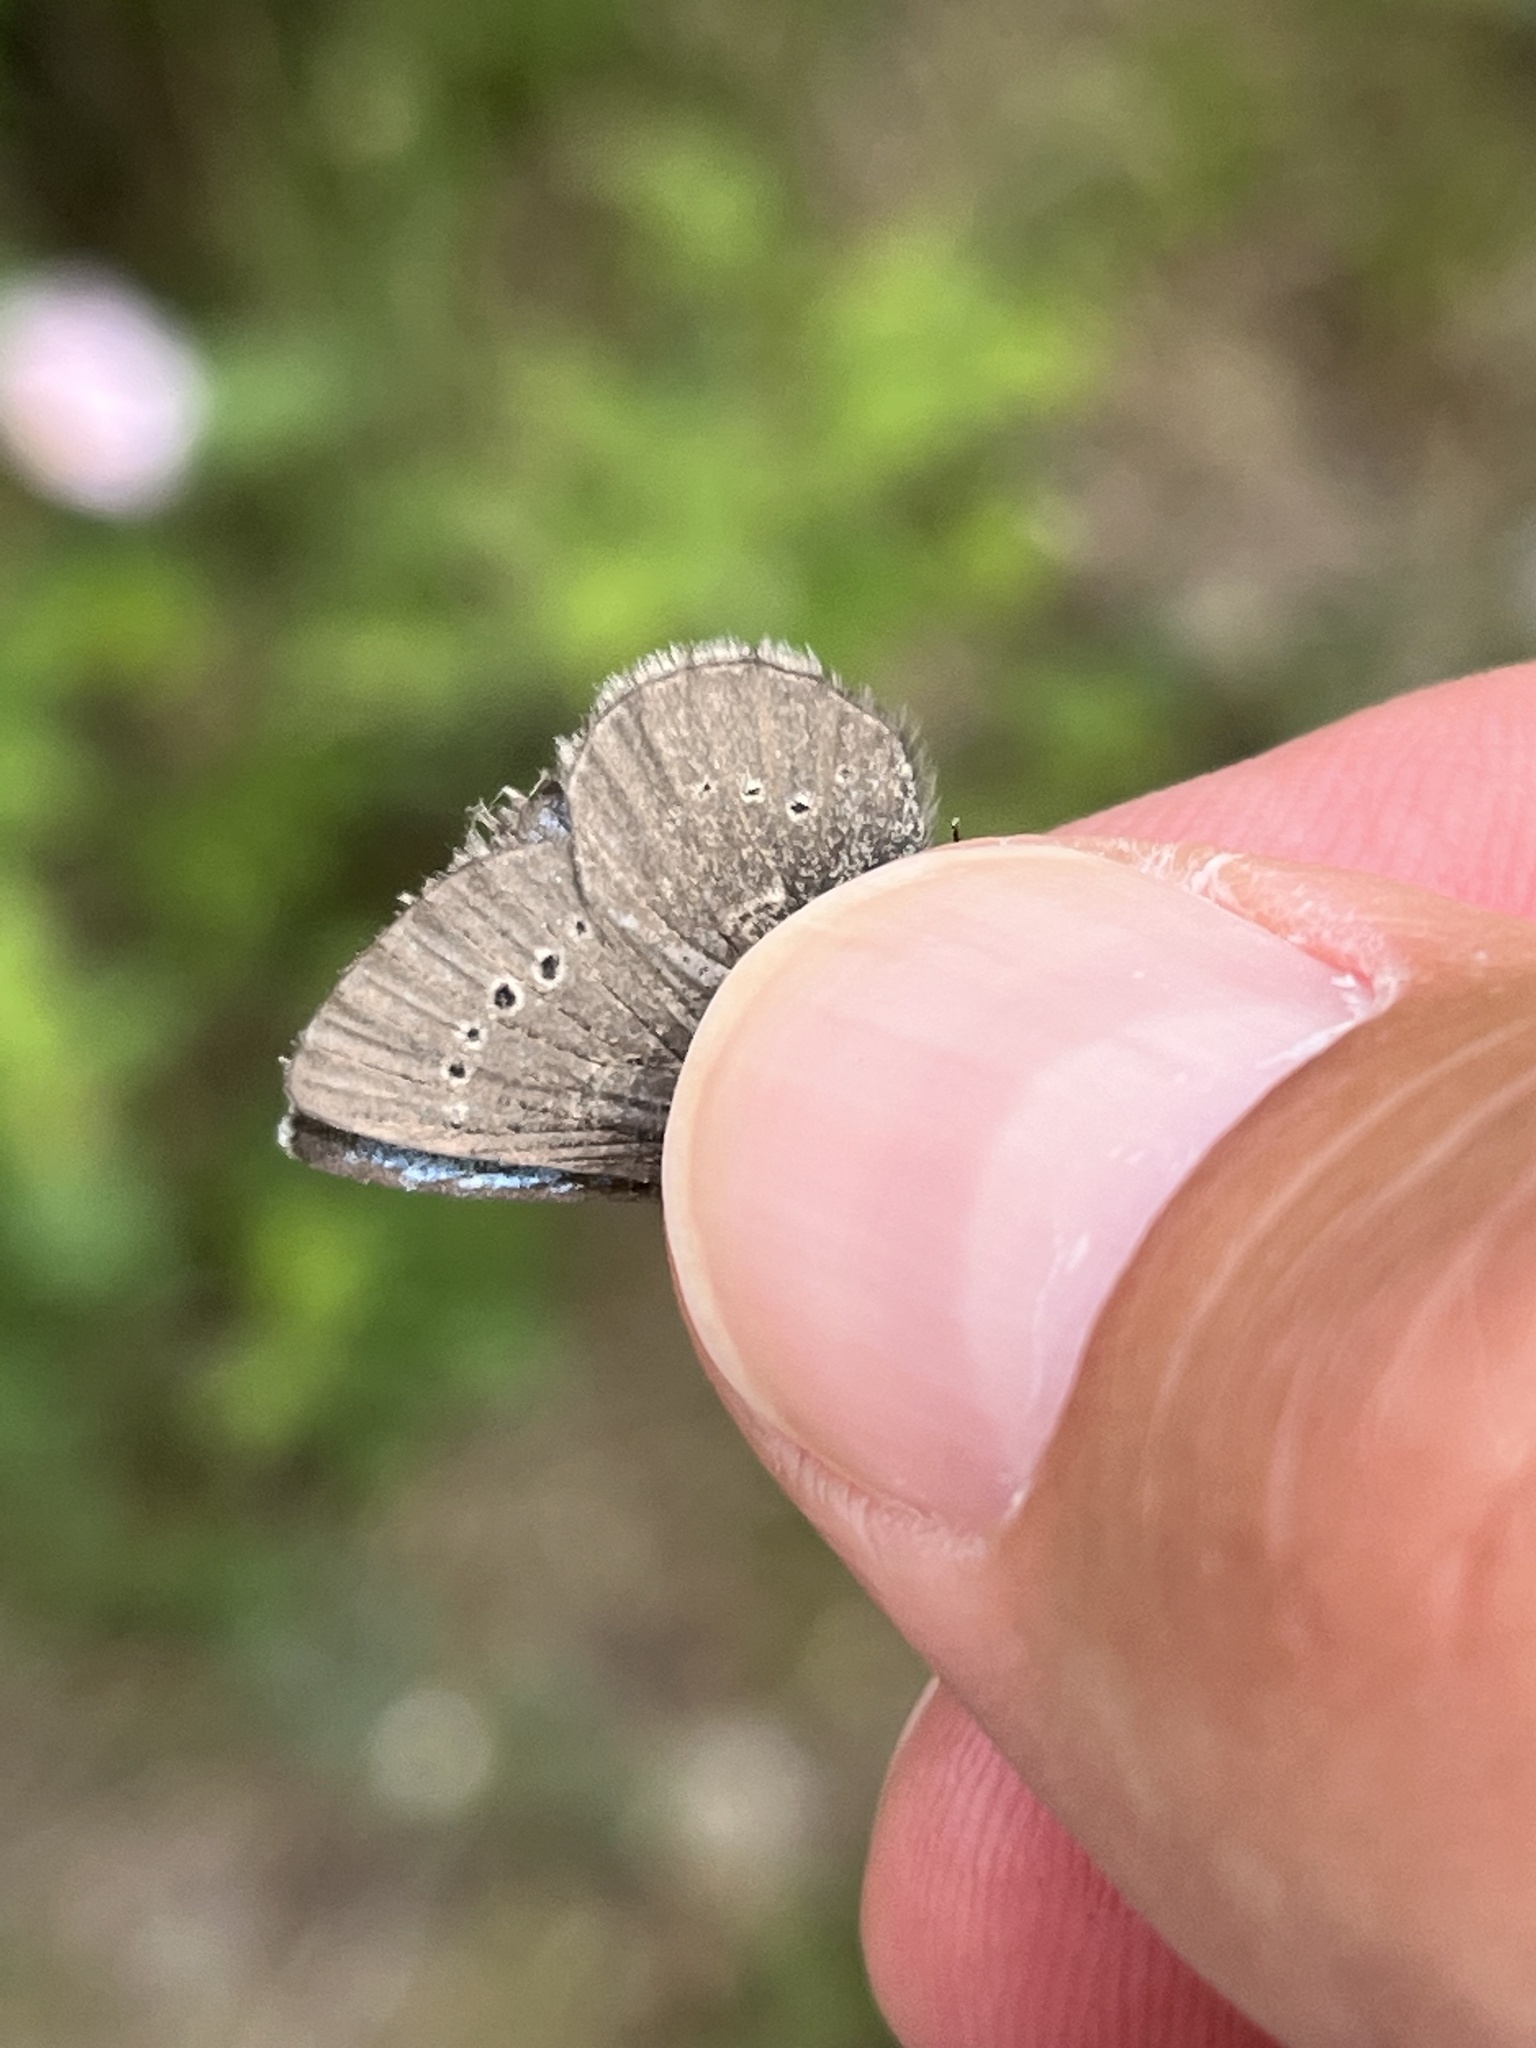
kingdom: Animalia
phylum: Arthropoda
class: Insecta
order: Lepidoptera
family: Lycaenidae
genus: Glaucopsyche
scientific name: Glaucopsyche lygdamus
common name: Silvery blue
